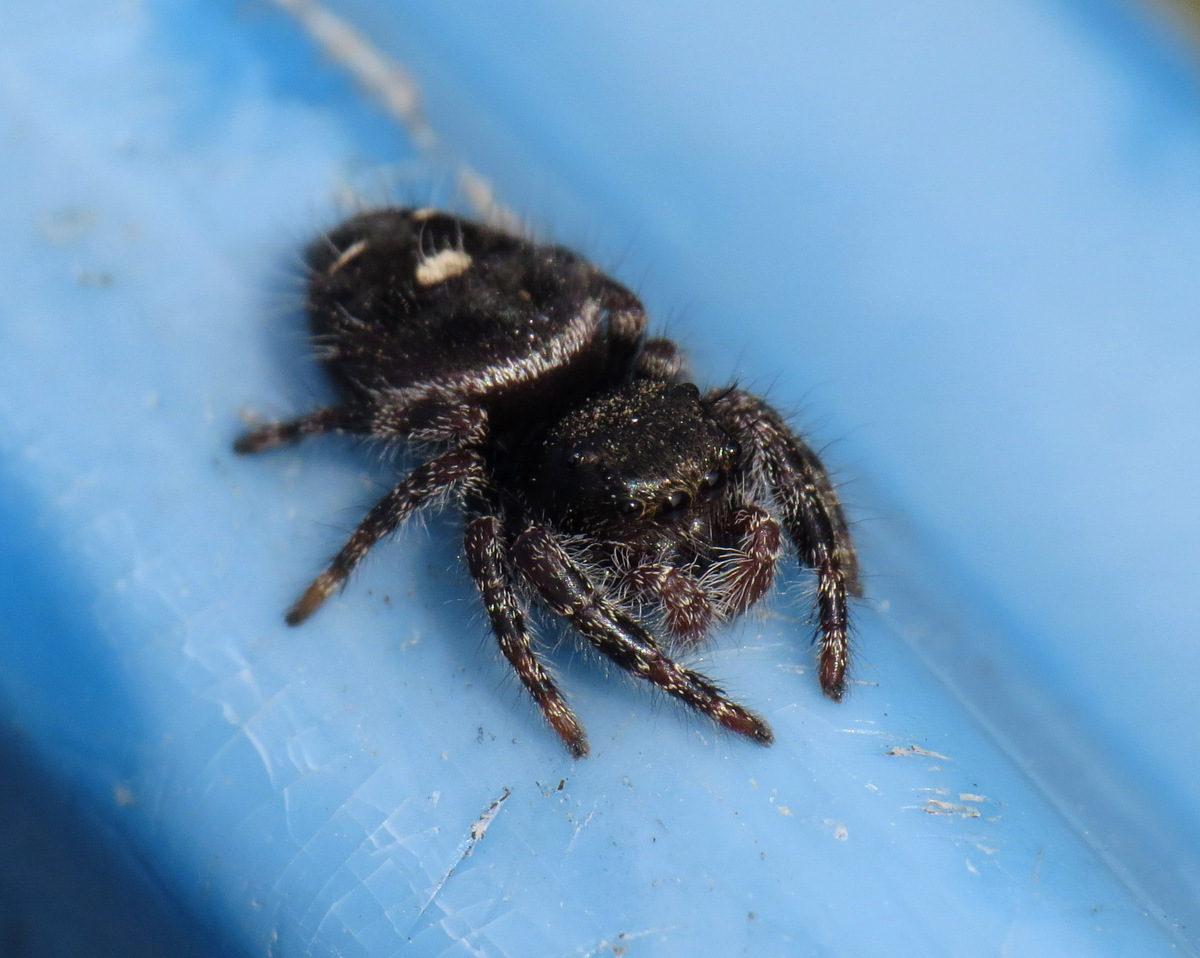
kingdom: Animalia
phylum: Arthropoda
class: Arachnida
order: Araneae
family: Salticidae
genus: Phidippus
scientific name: Phidippus audax
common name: Bold jumper
